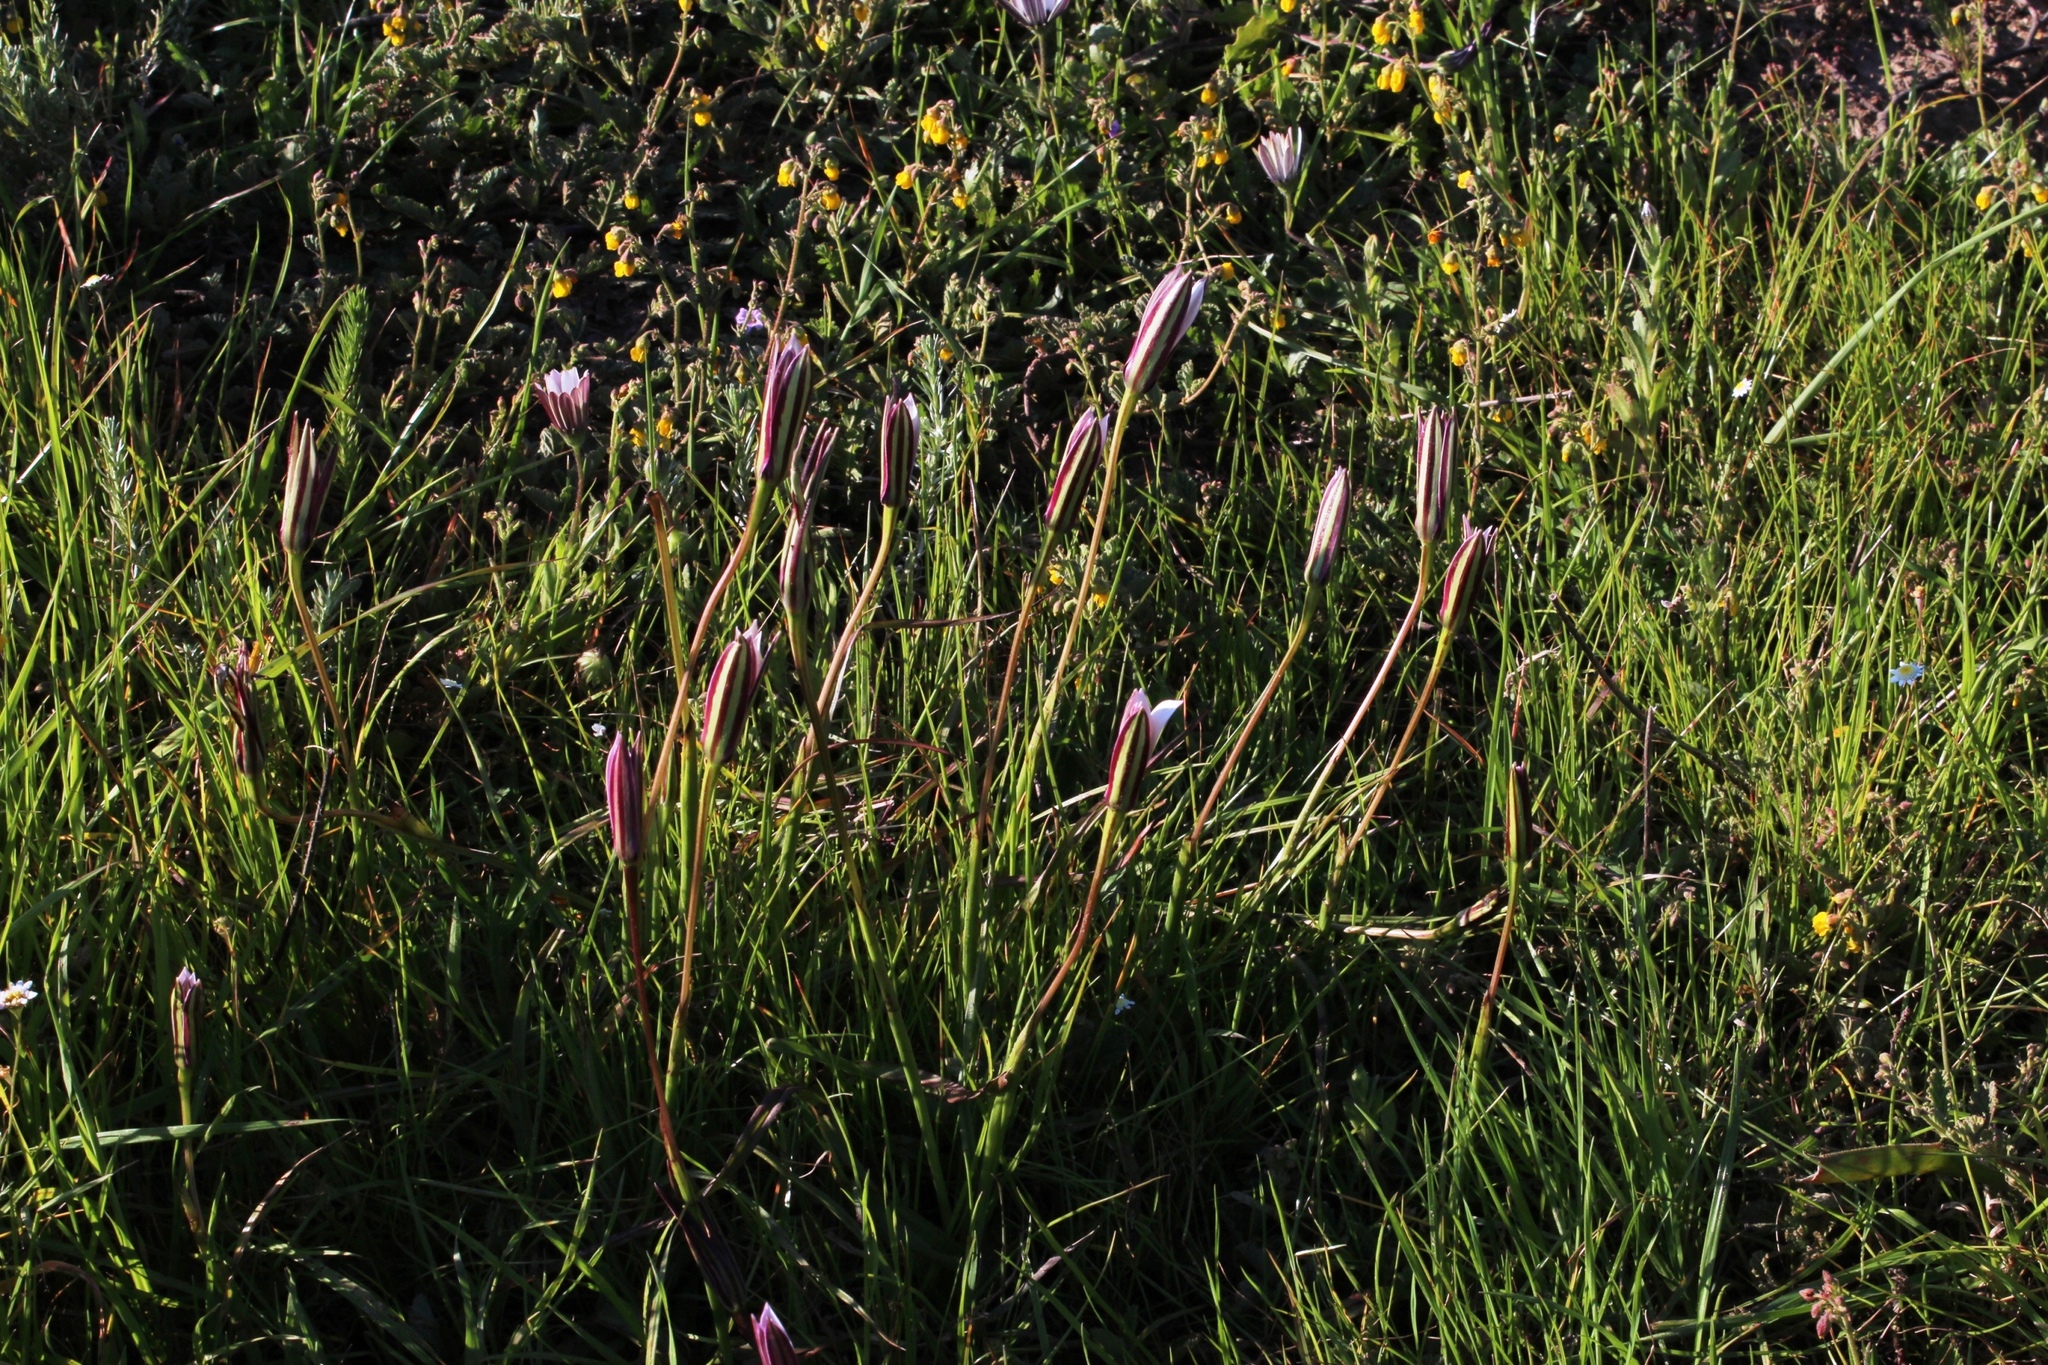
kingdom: Plantae
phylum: Tracheophyta
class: Liliopsida
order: Asparagales
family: Hypoxidaceae
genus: Pauridia
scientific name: Pauridia capensis
